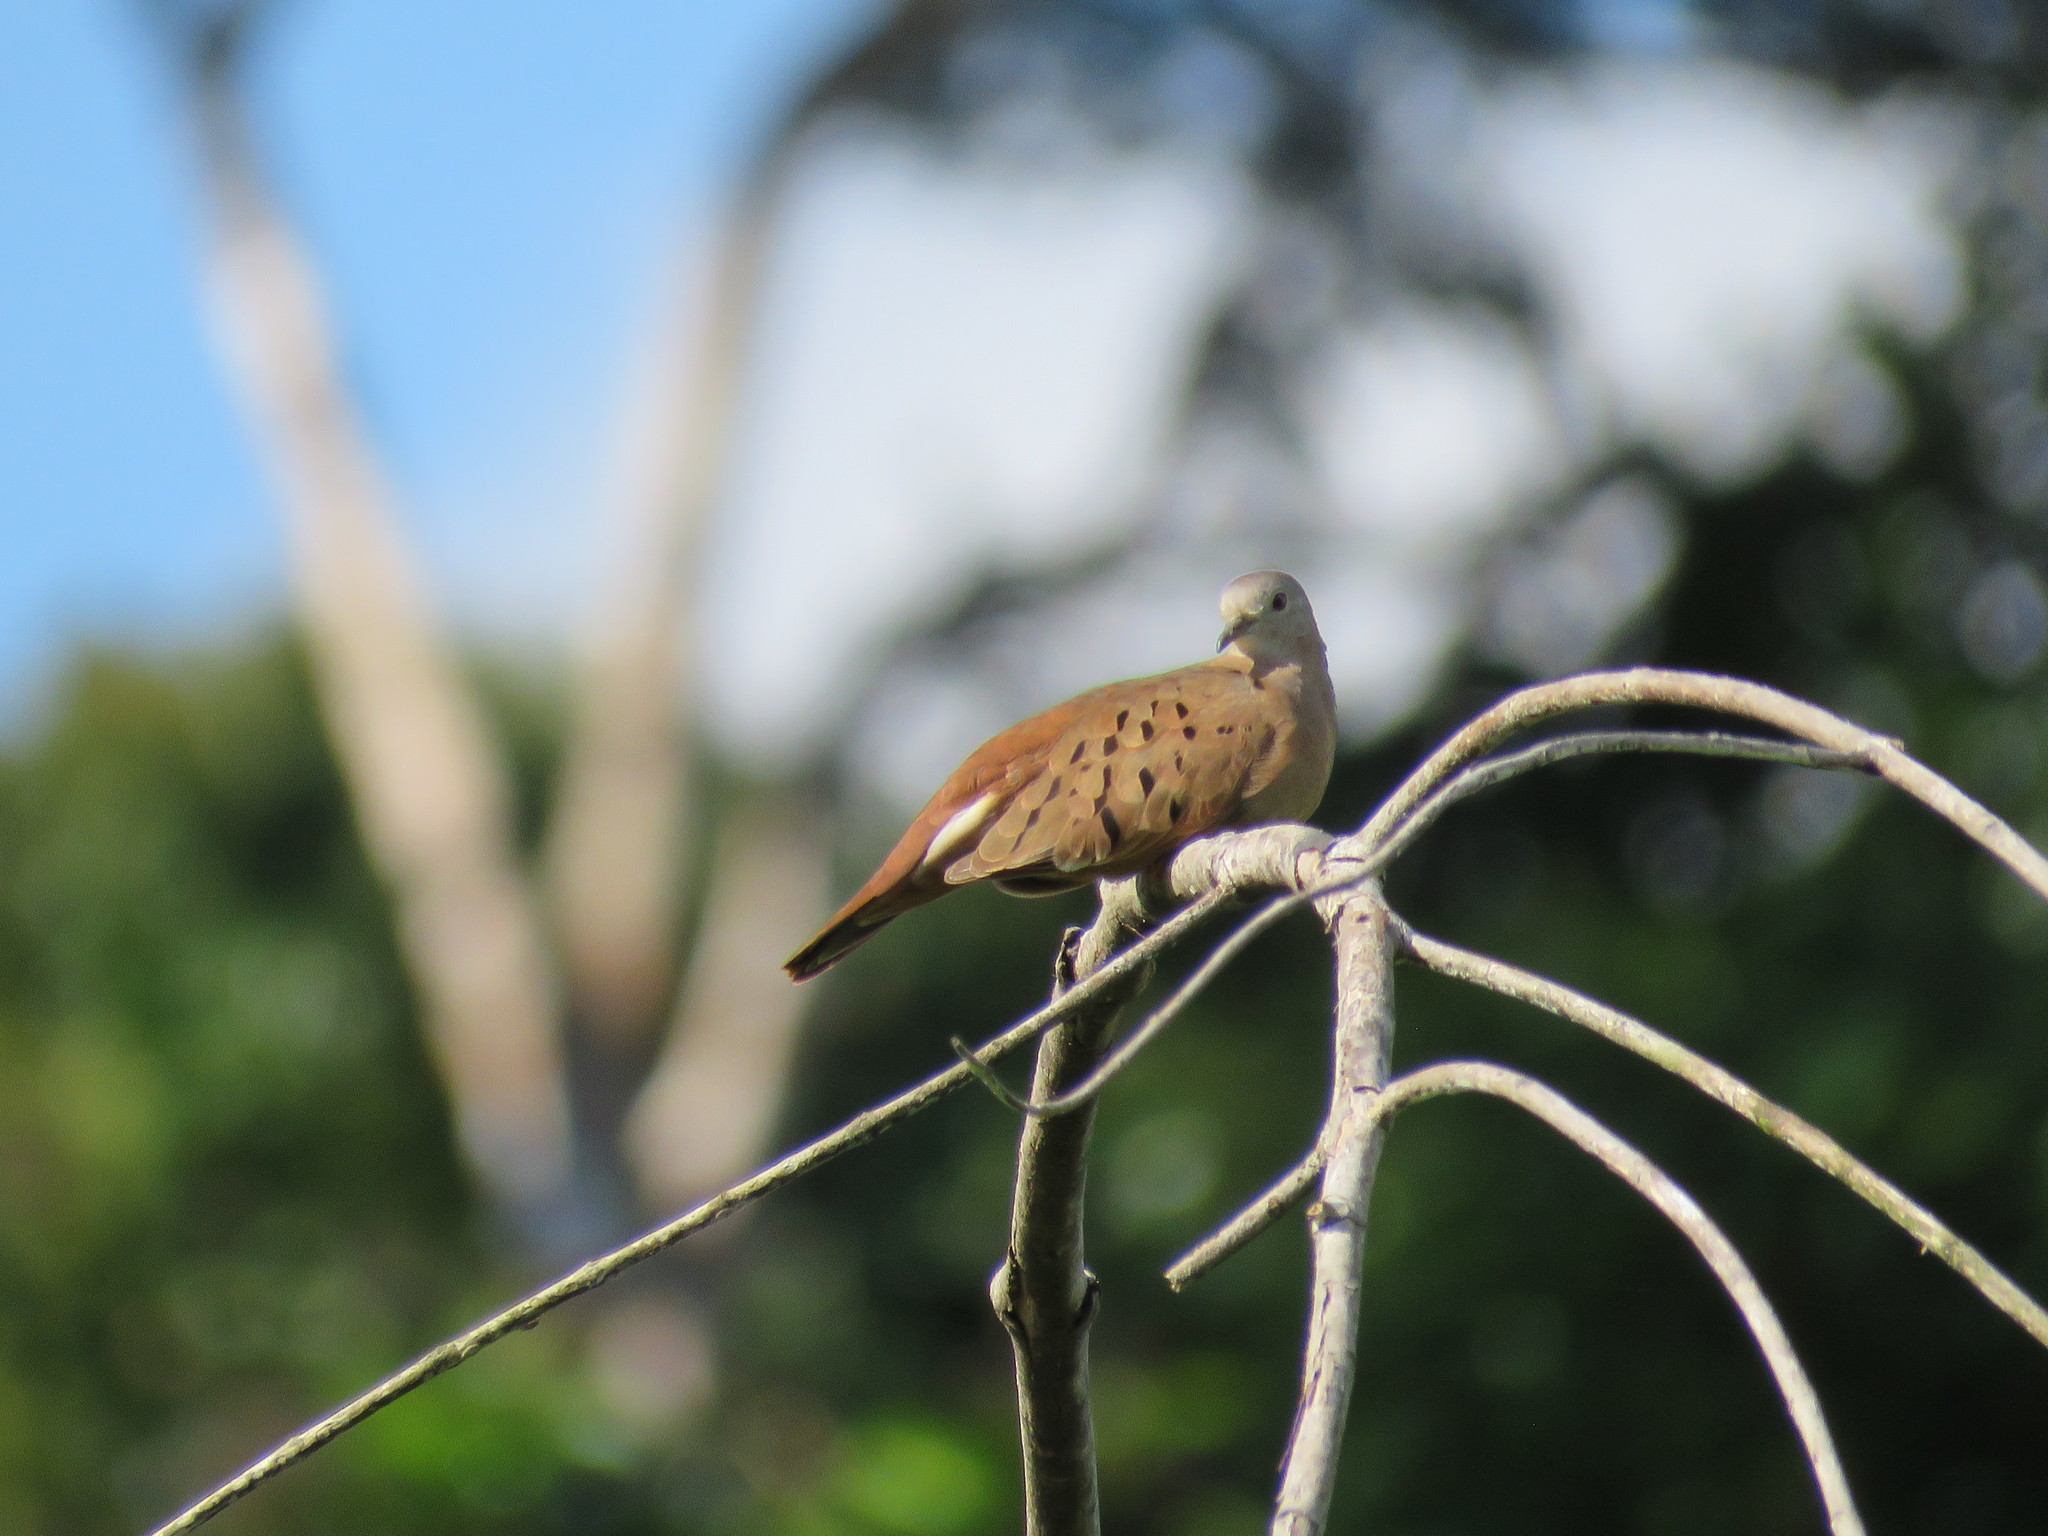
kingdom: Animalia
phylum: Chordata
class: Aves
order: Columbiformes
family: Columbidae
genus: Columbina
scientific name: Columbina talpacoti
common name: Ruddy ground dove
